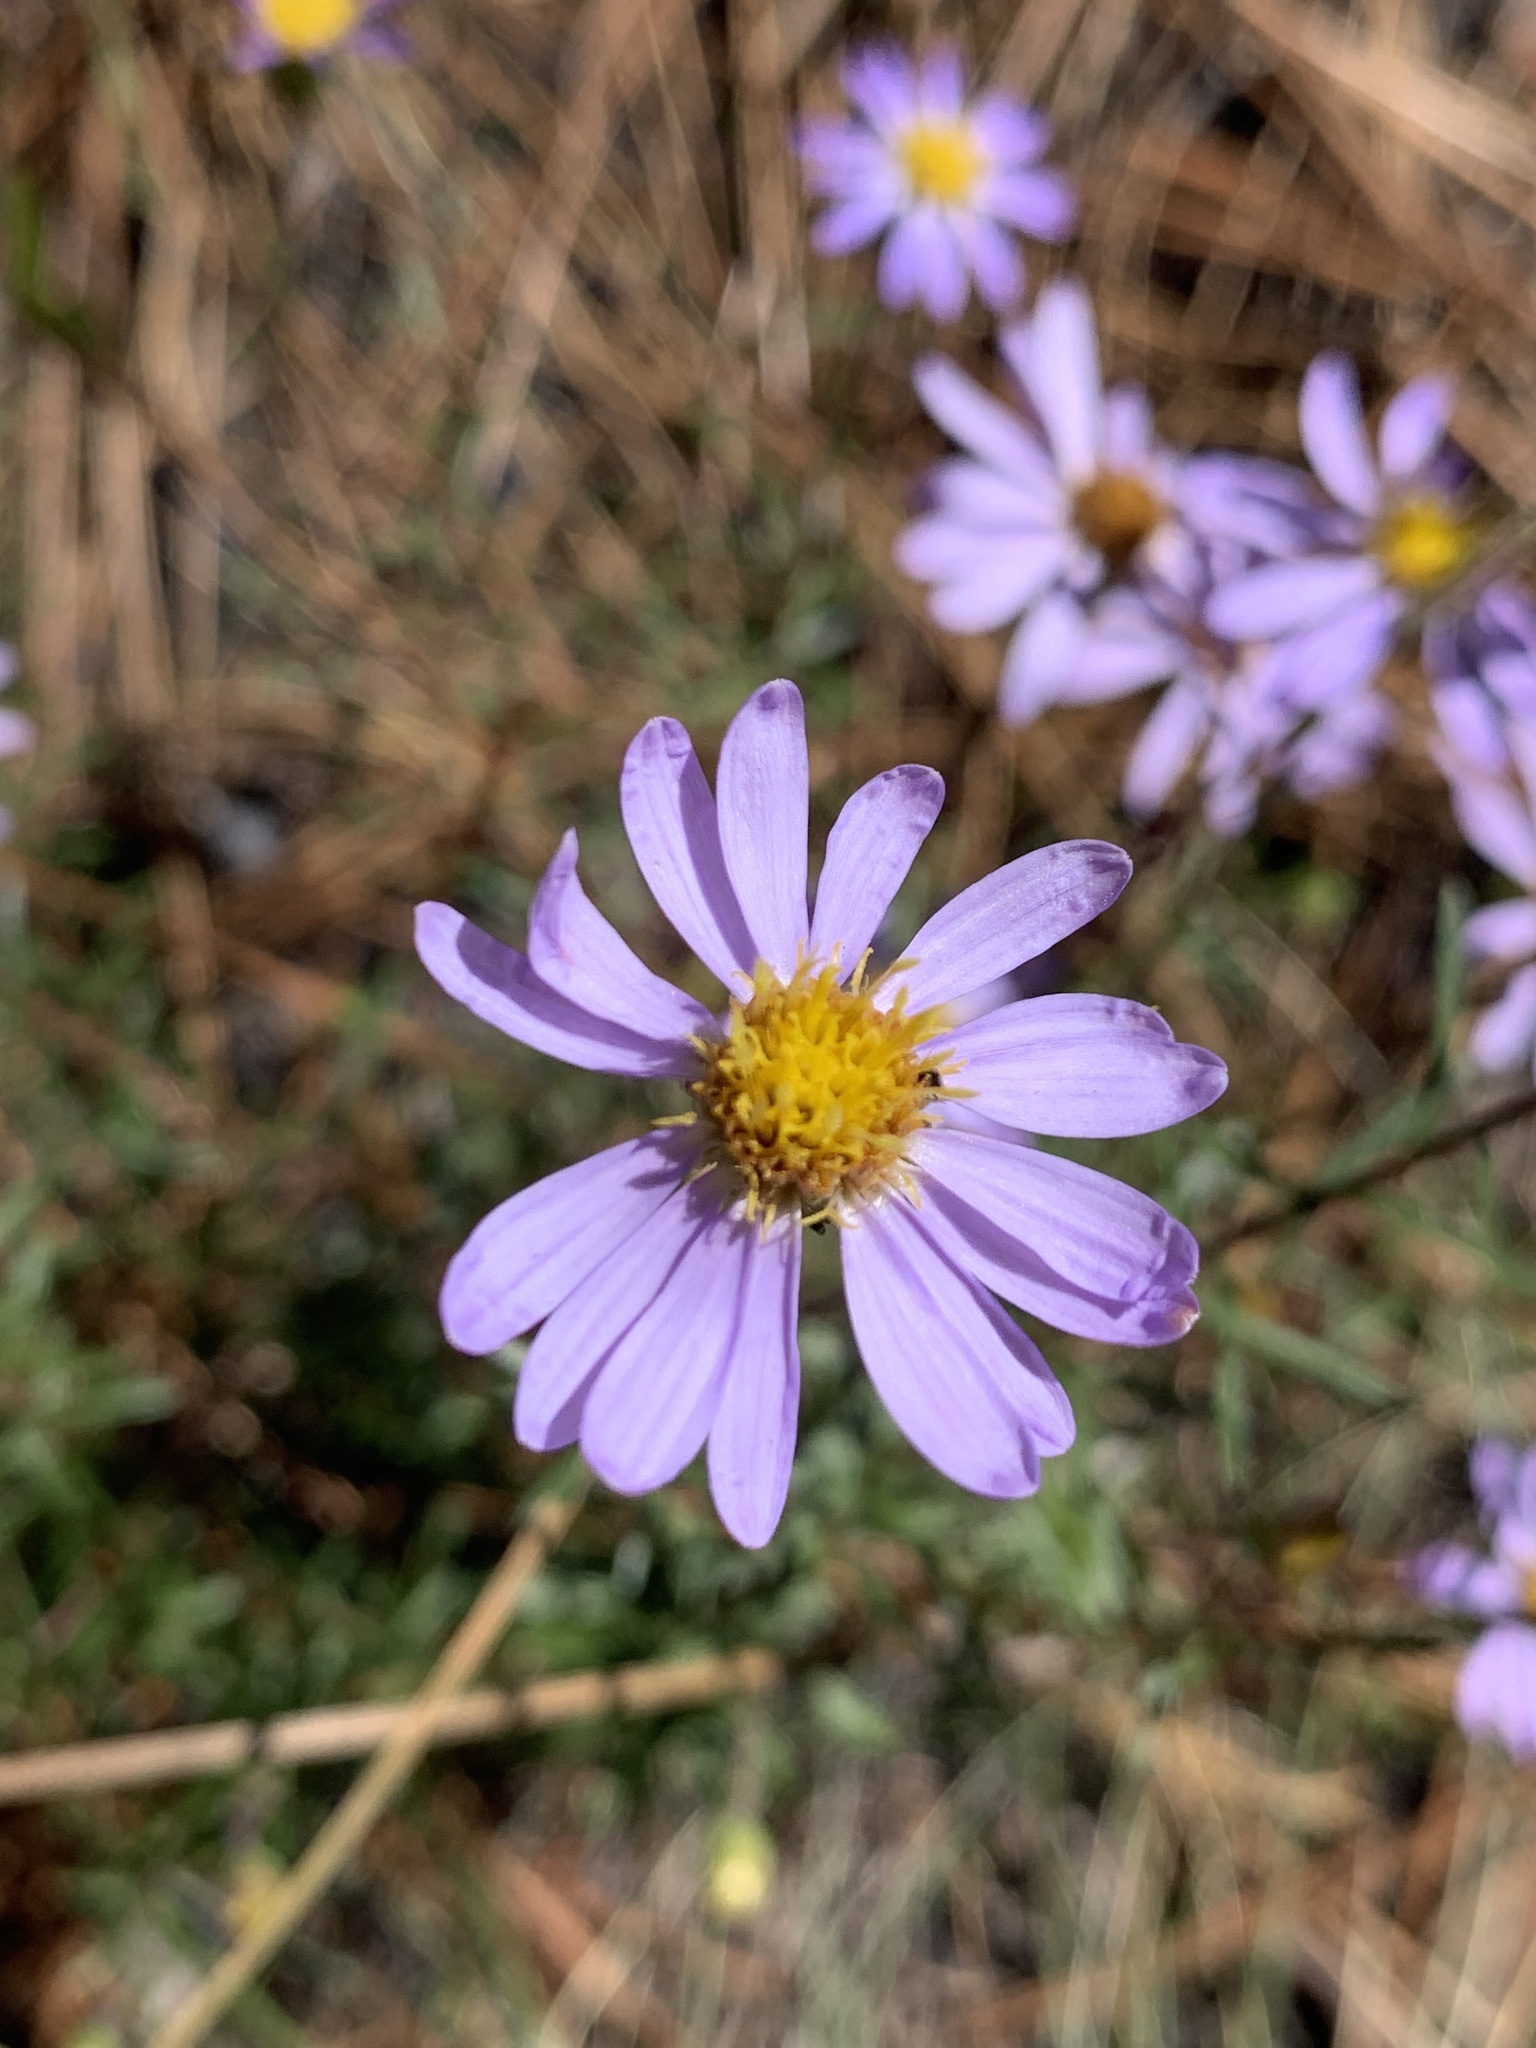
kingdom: Plantae
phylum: Tracheophyta
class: Magnoliopsida
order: Asterales
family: Asteraceae
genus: Ionactis
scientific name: Ionactis linariifolia
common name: Flax-leaf aster
